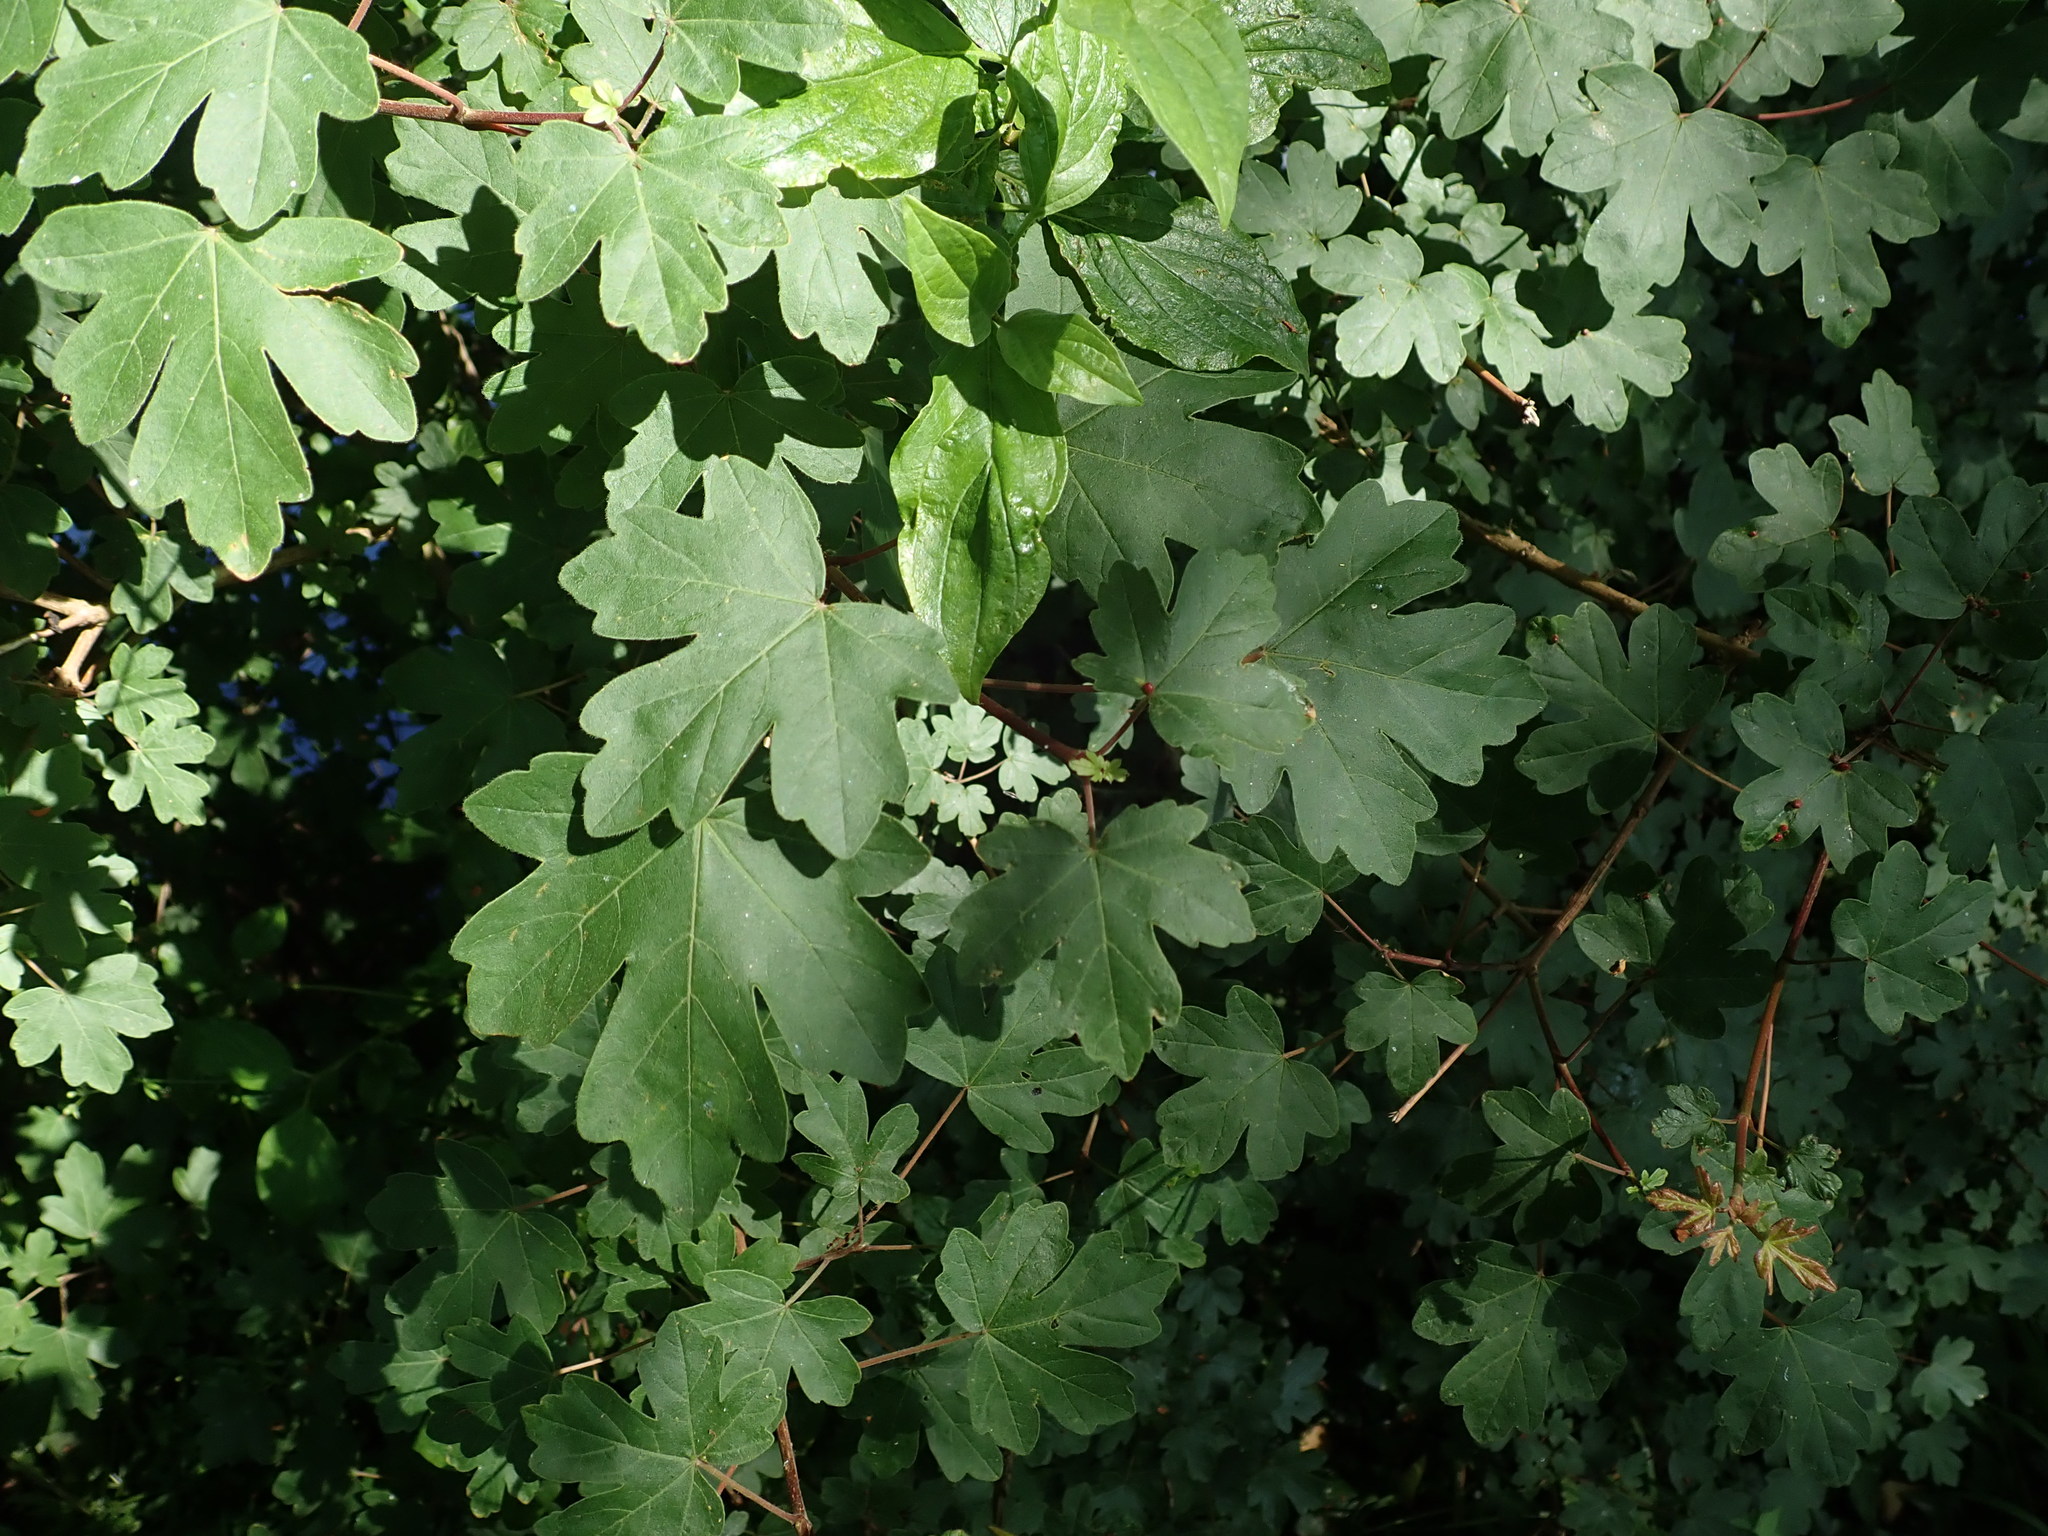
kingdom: Plantae
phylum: Tracheophyta
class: Magnoliopsida
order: Sapindales
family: Sapindaceae
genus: Acer
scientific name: Acer campestre
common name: Field maple
